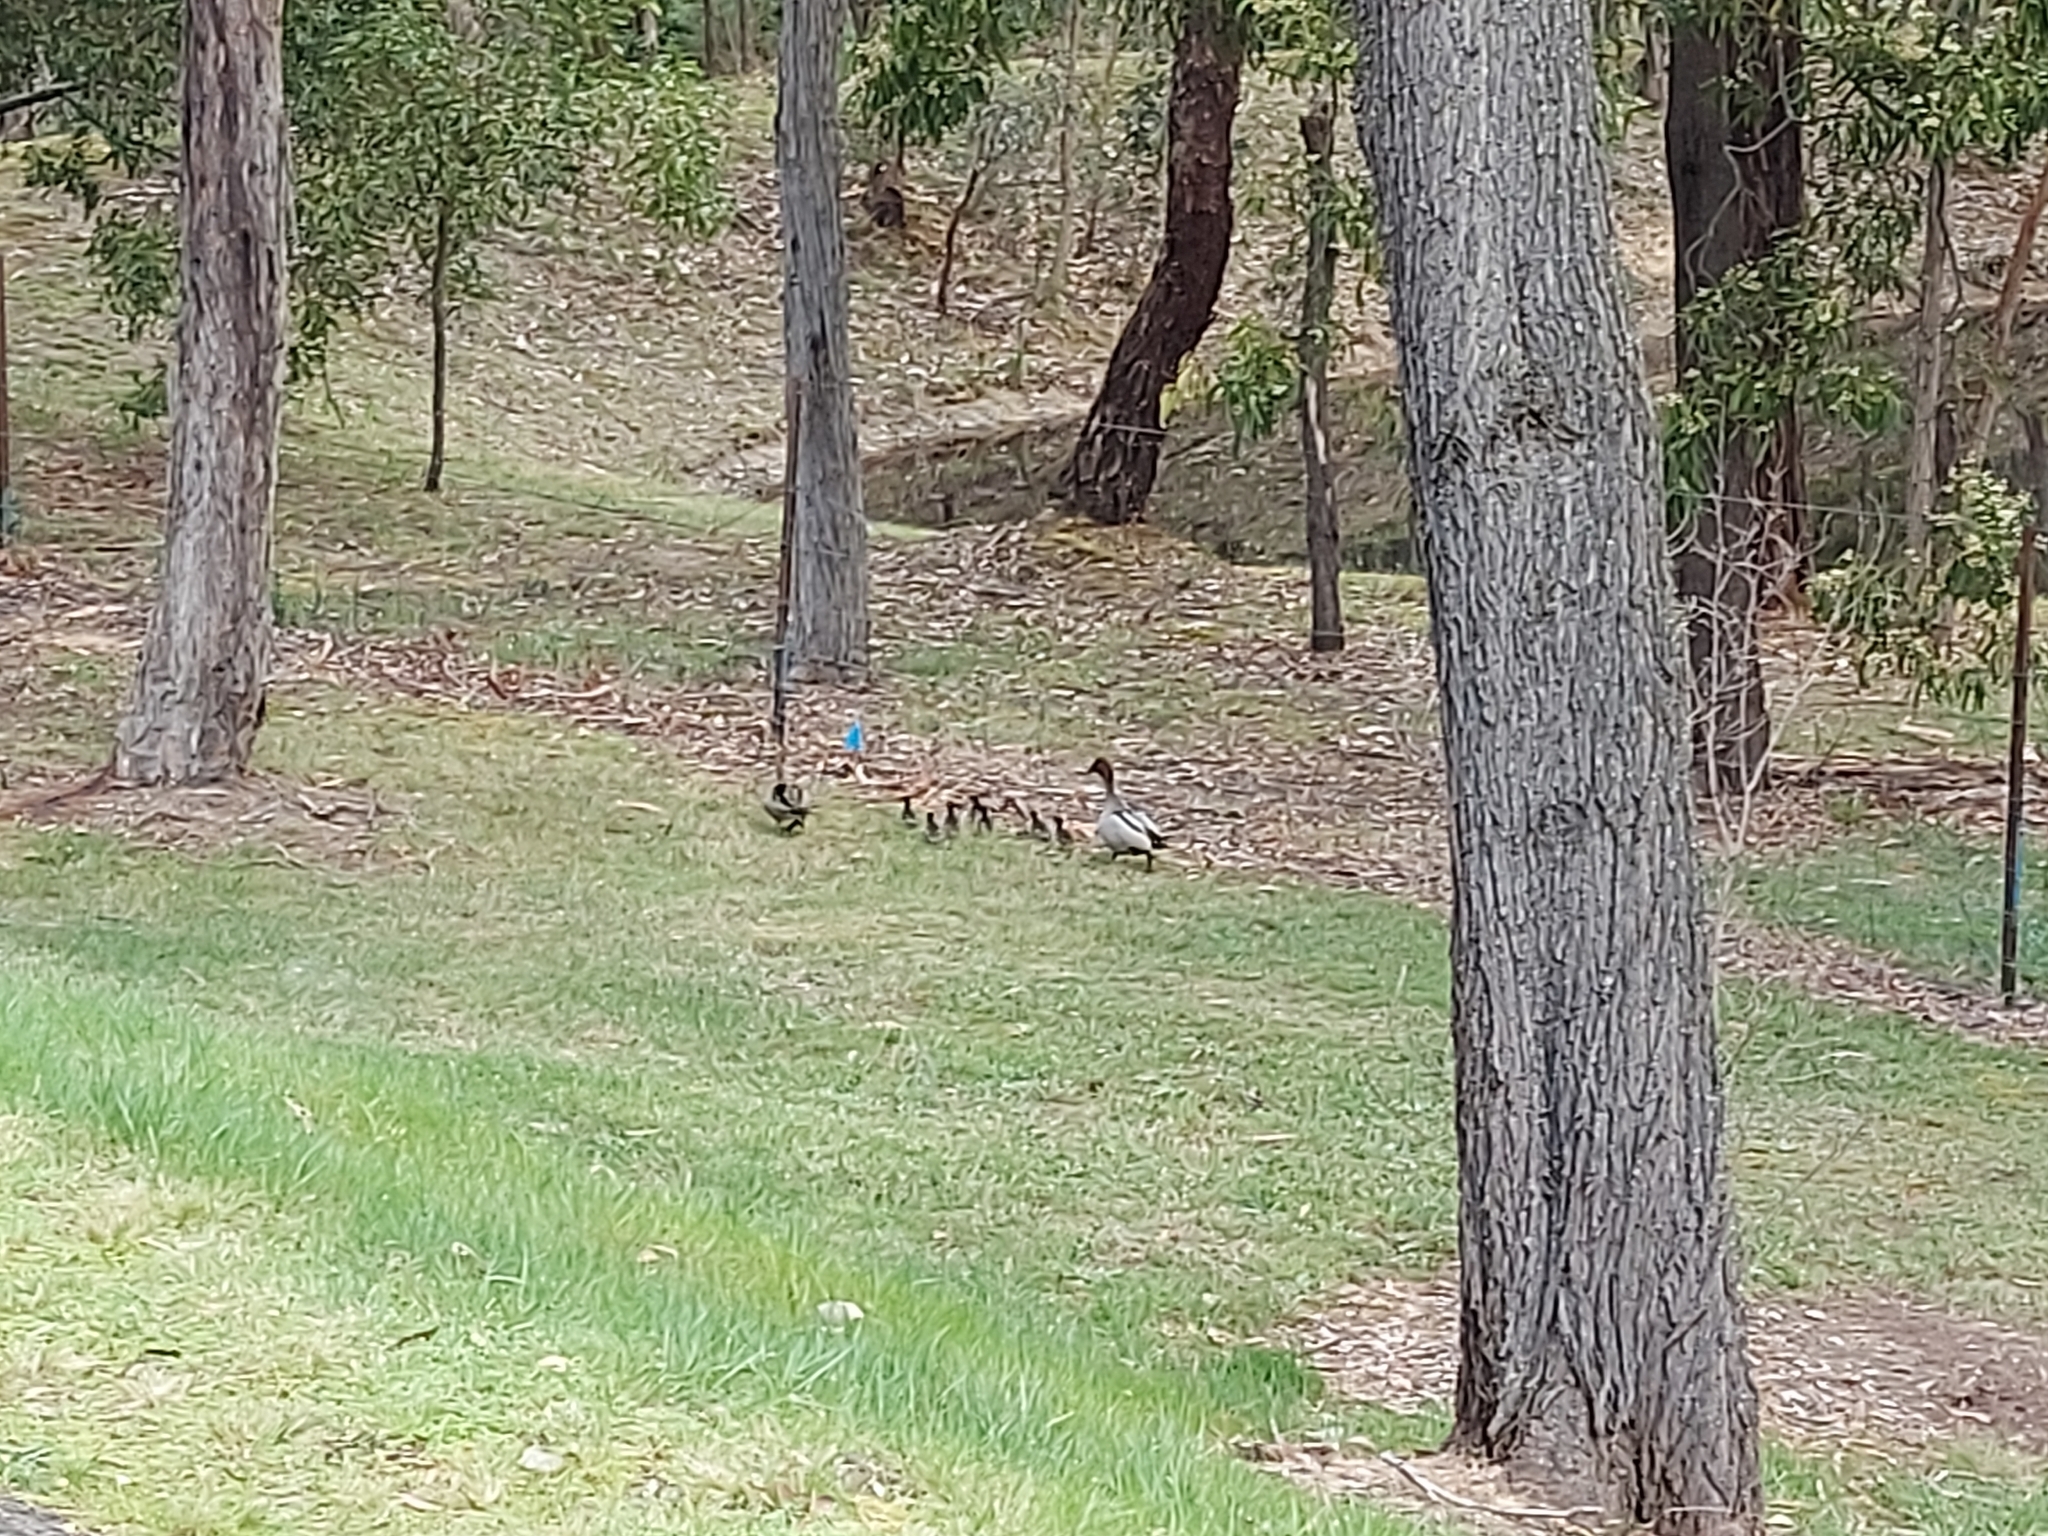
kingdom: Animalia
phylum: Chordata
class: Aves
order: Anseriformes
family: Anatidae
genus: Chenonetta
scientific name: Chenonetta jubata
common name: Maned duck
